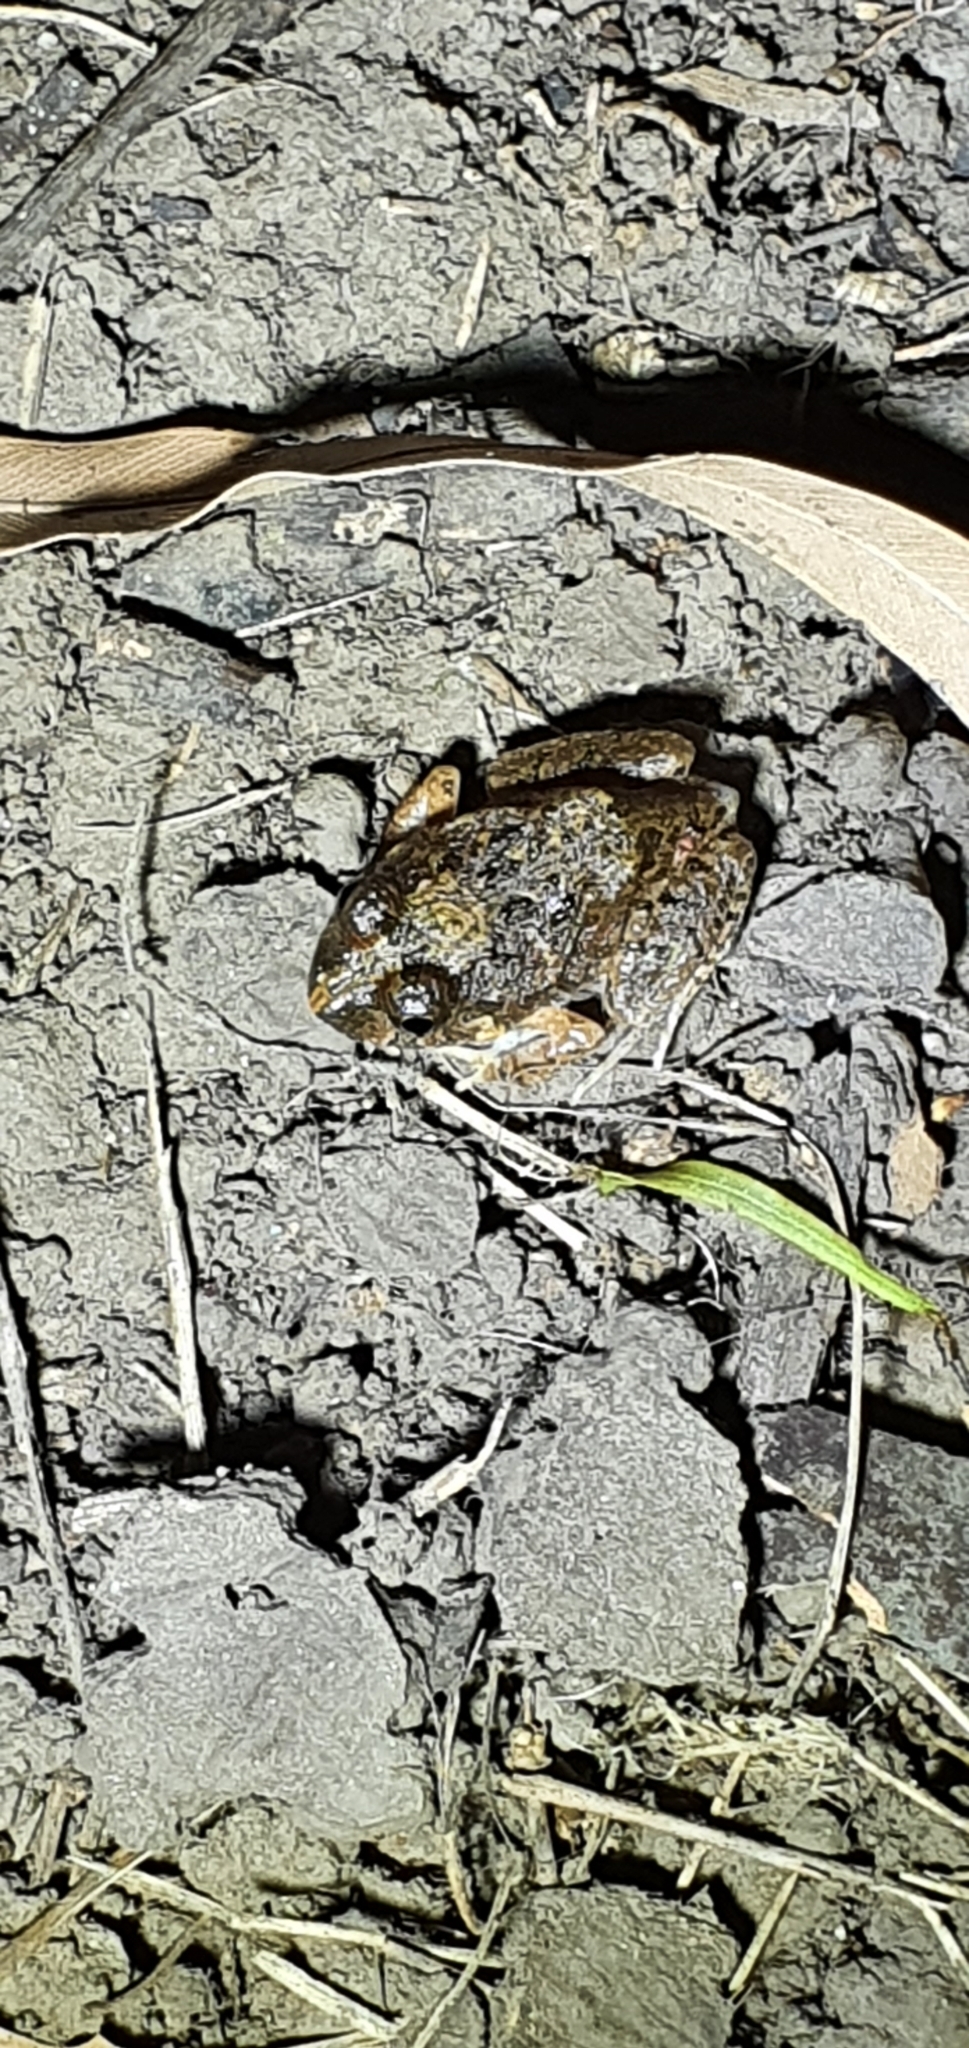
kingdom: Animalia
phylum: Chordata
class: Amphibia
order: Anura
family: Limnodynastidae
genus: Platyplectrum
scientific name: Platyplectrum ornatum
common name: Ornate burrowing frog
